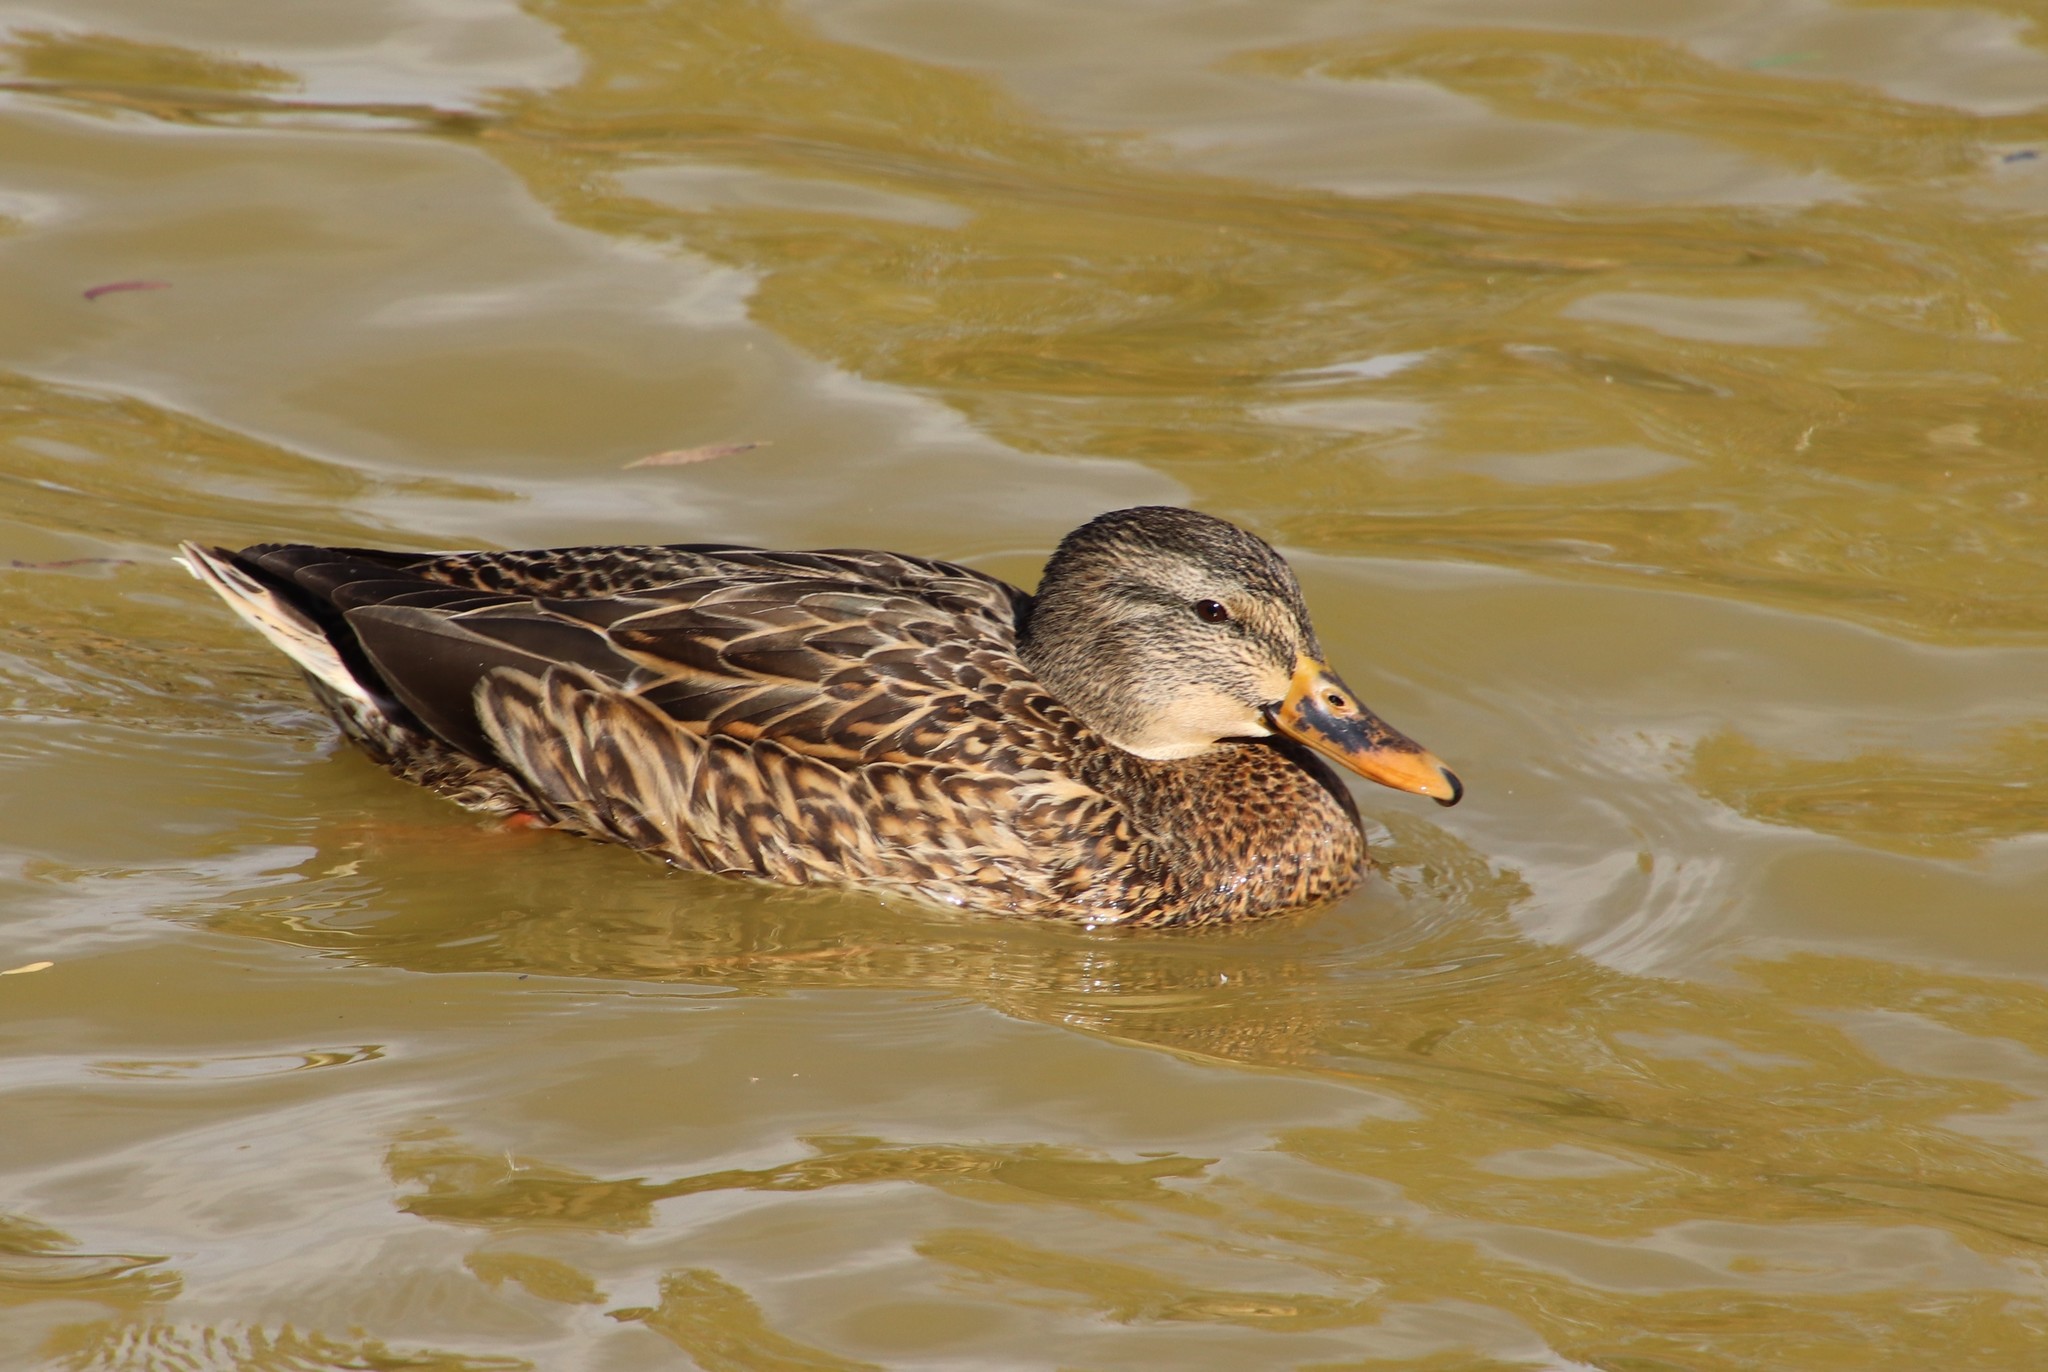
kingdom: Animalia
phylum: Chordata
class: Aves
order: Anseriformes
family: Anatidae
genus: Anas
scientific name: Anas platyrhynchos
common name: Mallard
